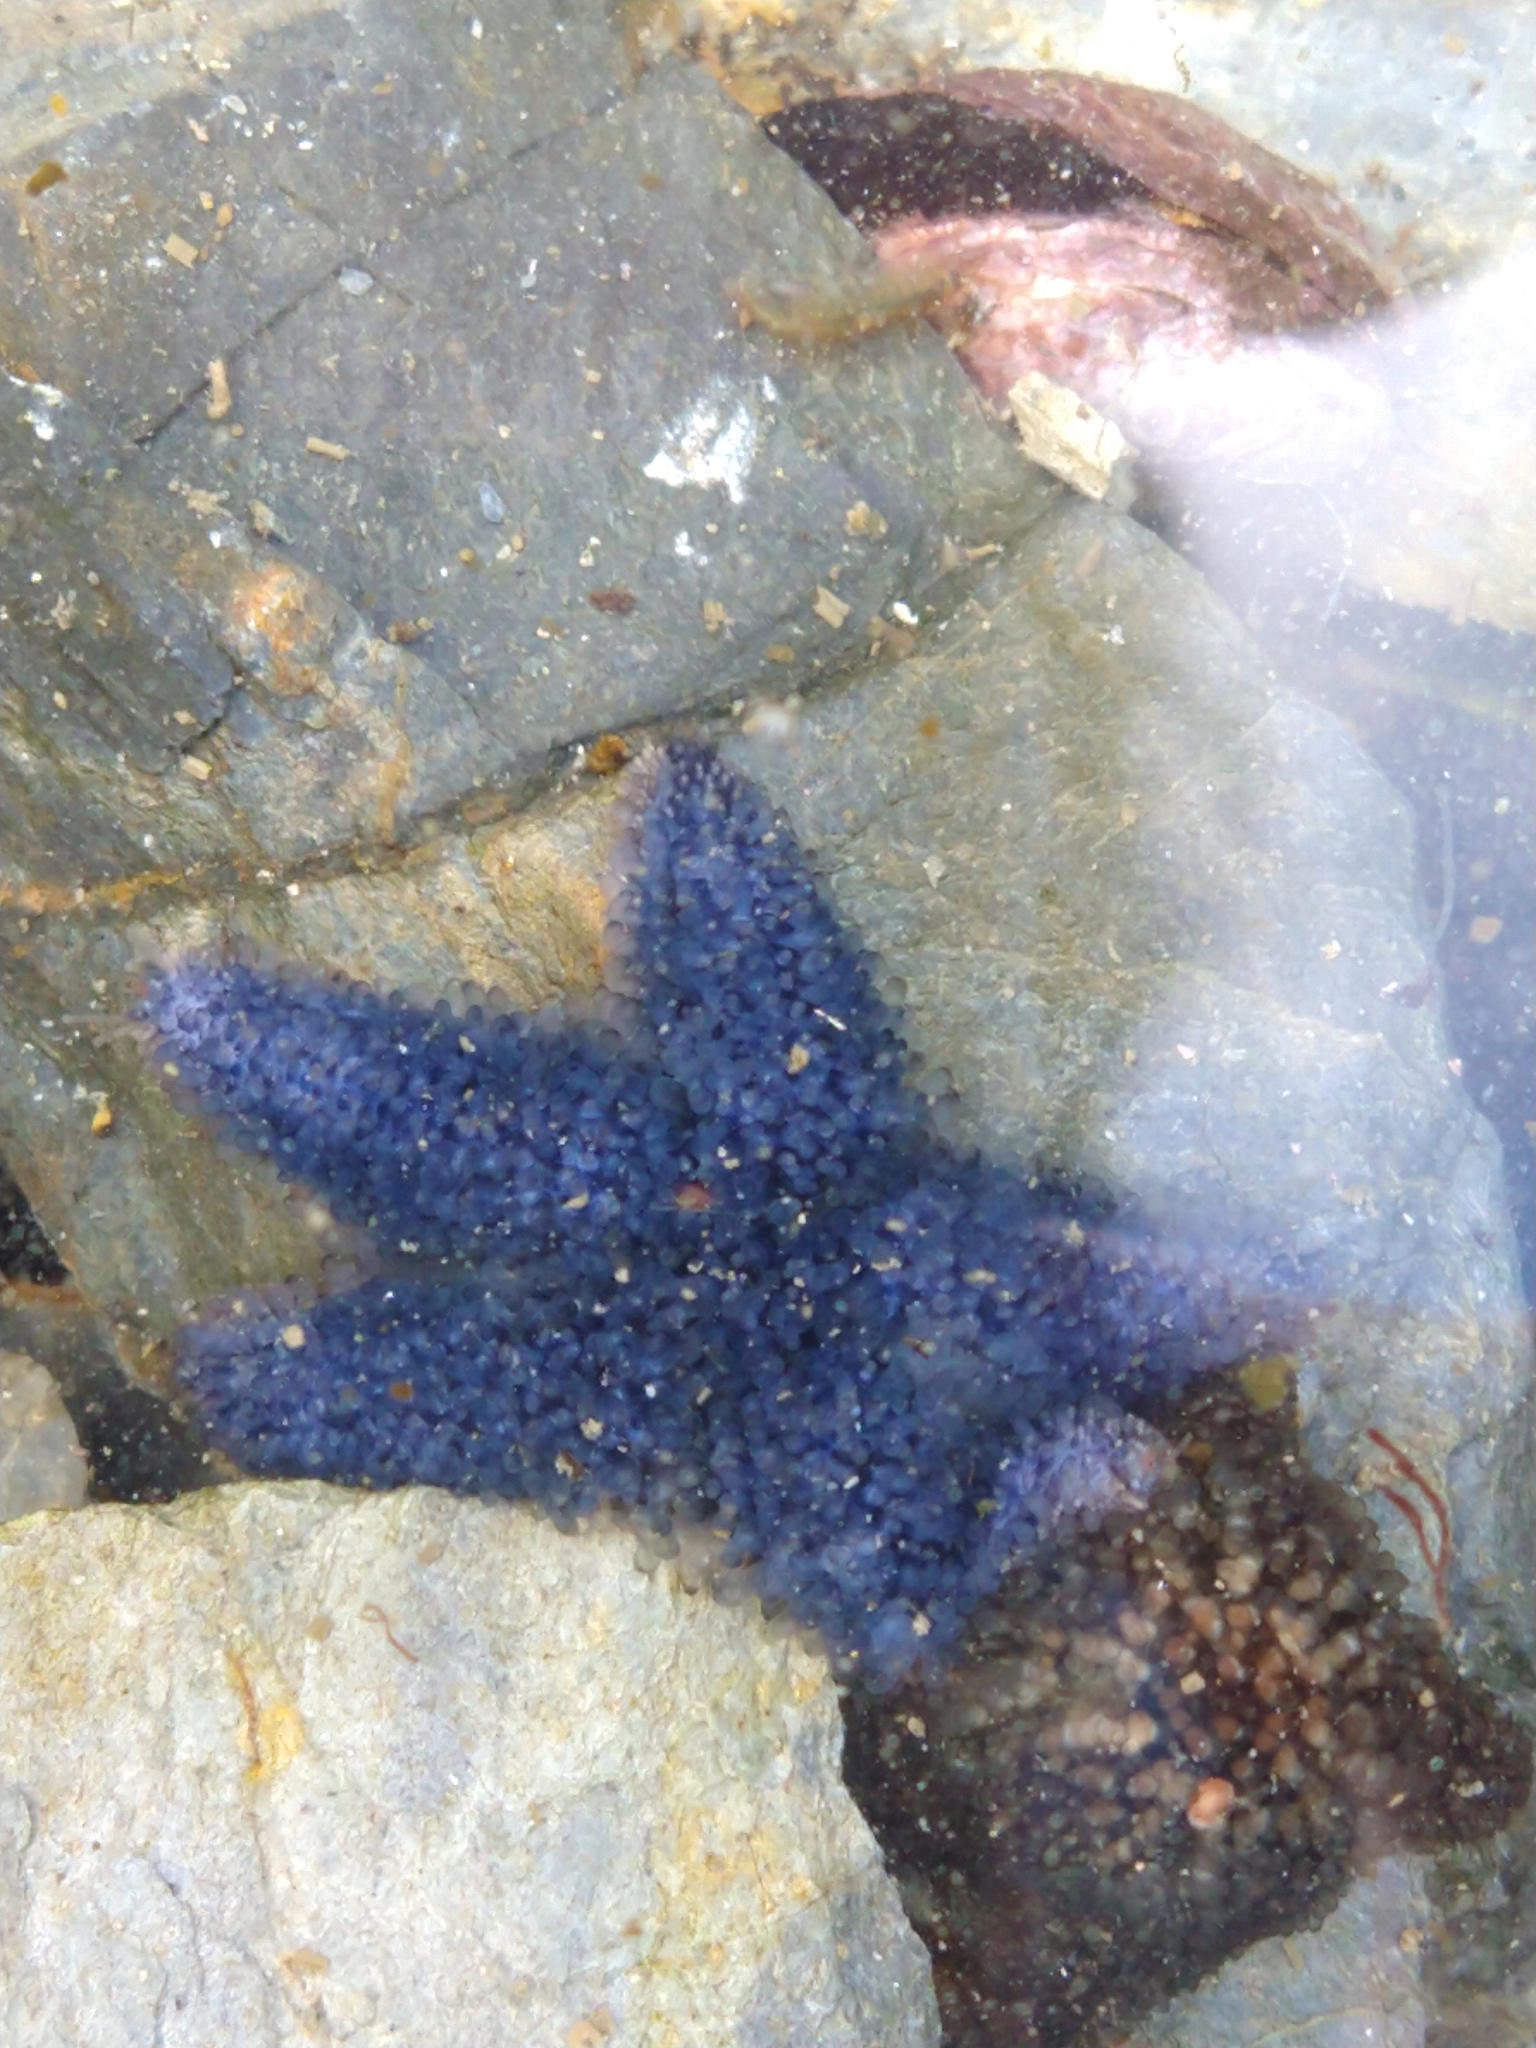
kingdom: Animalia
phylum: Echinodermata
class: Asteroidea
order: Forcipulatida
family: Asteriidae
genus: Anasterias
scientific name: Anasterias antarctica
